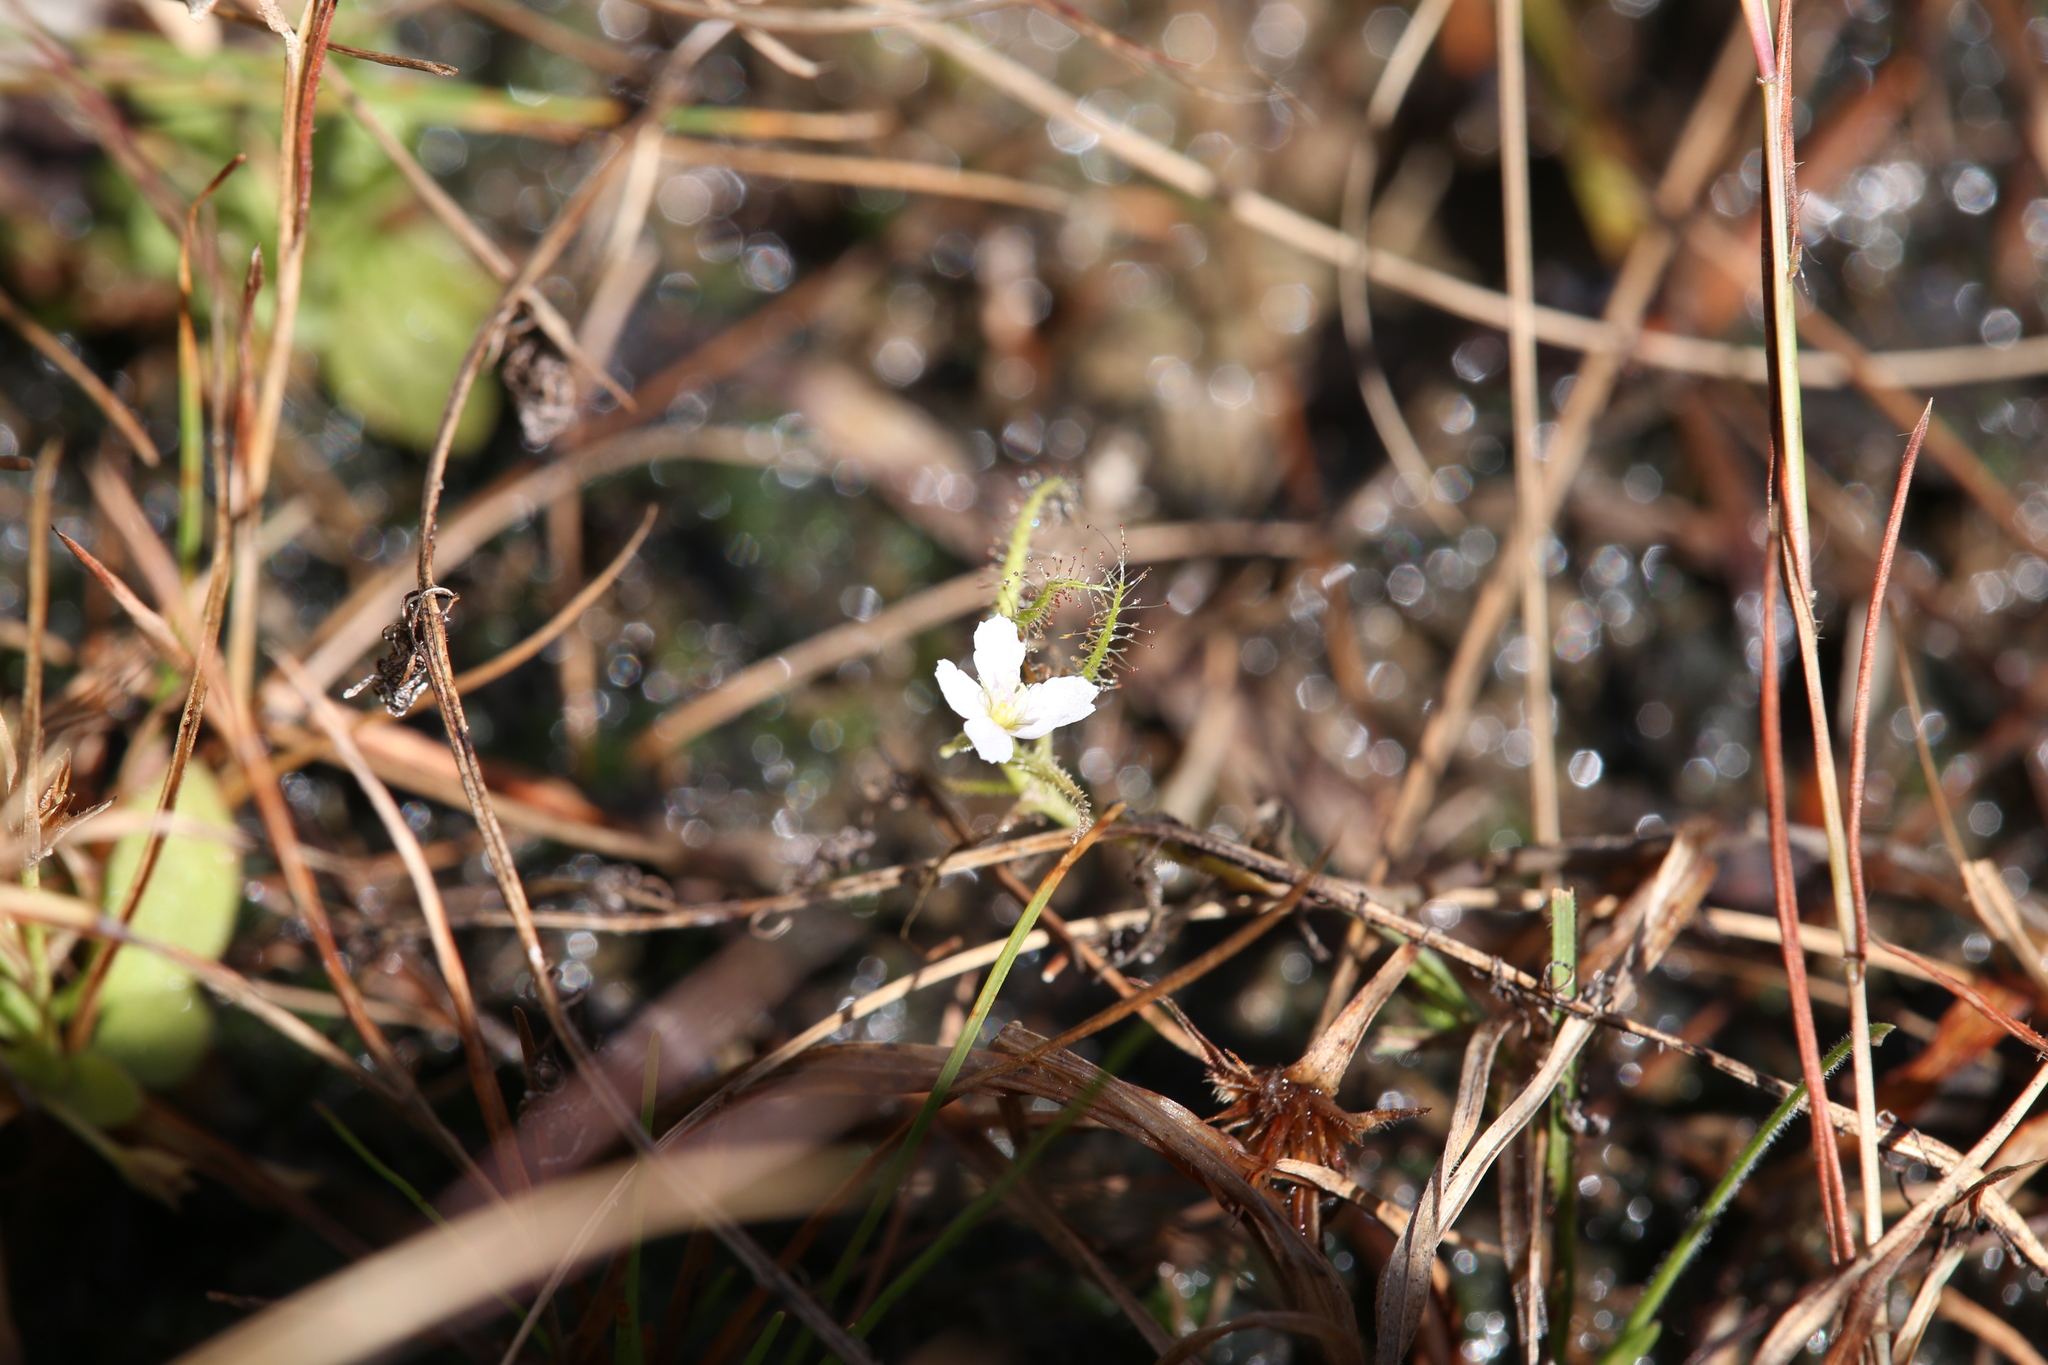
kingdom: Plantae
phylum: Tracheophyta
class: Magnoliopsida
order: Caryophyllales
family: Droseraceae
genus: Drosera
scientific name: Drosera indica
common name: Indian sundew
